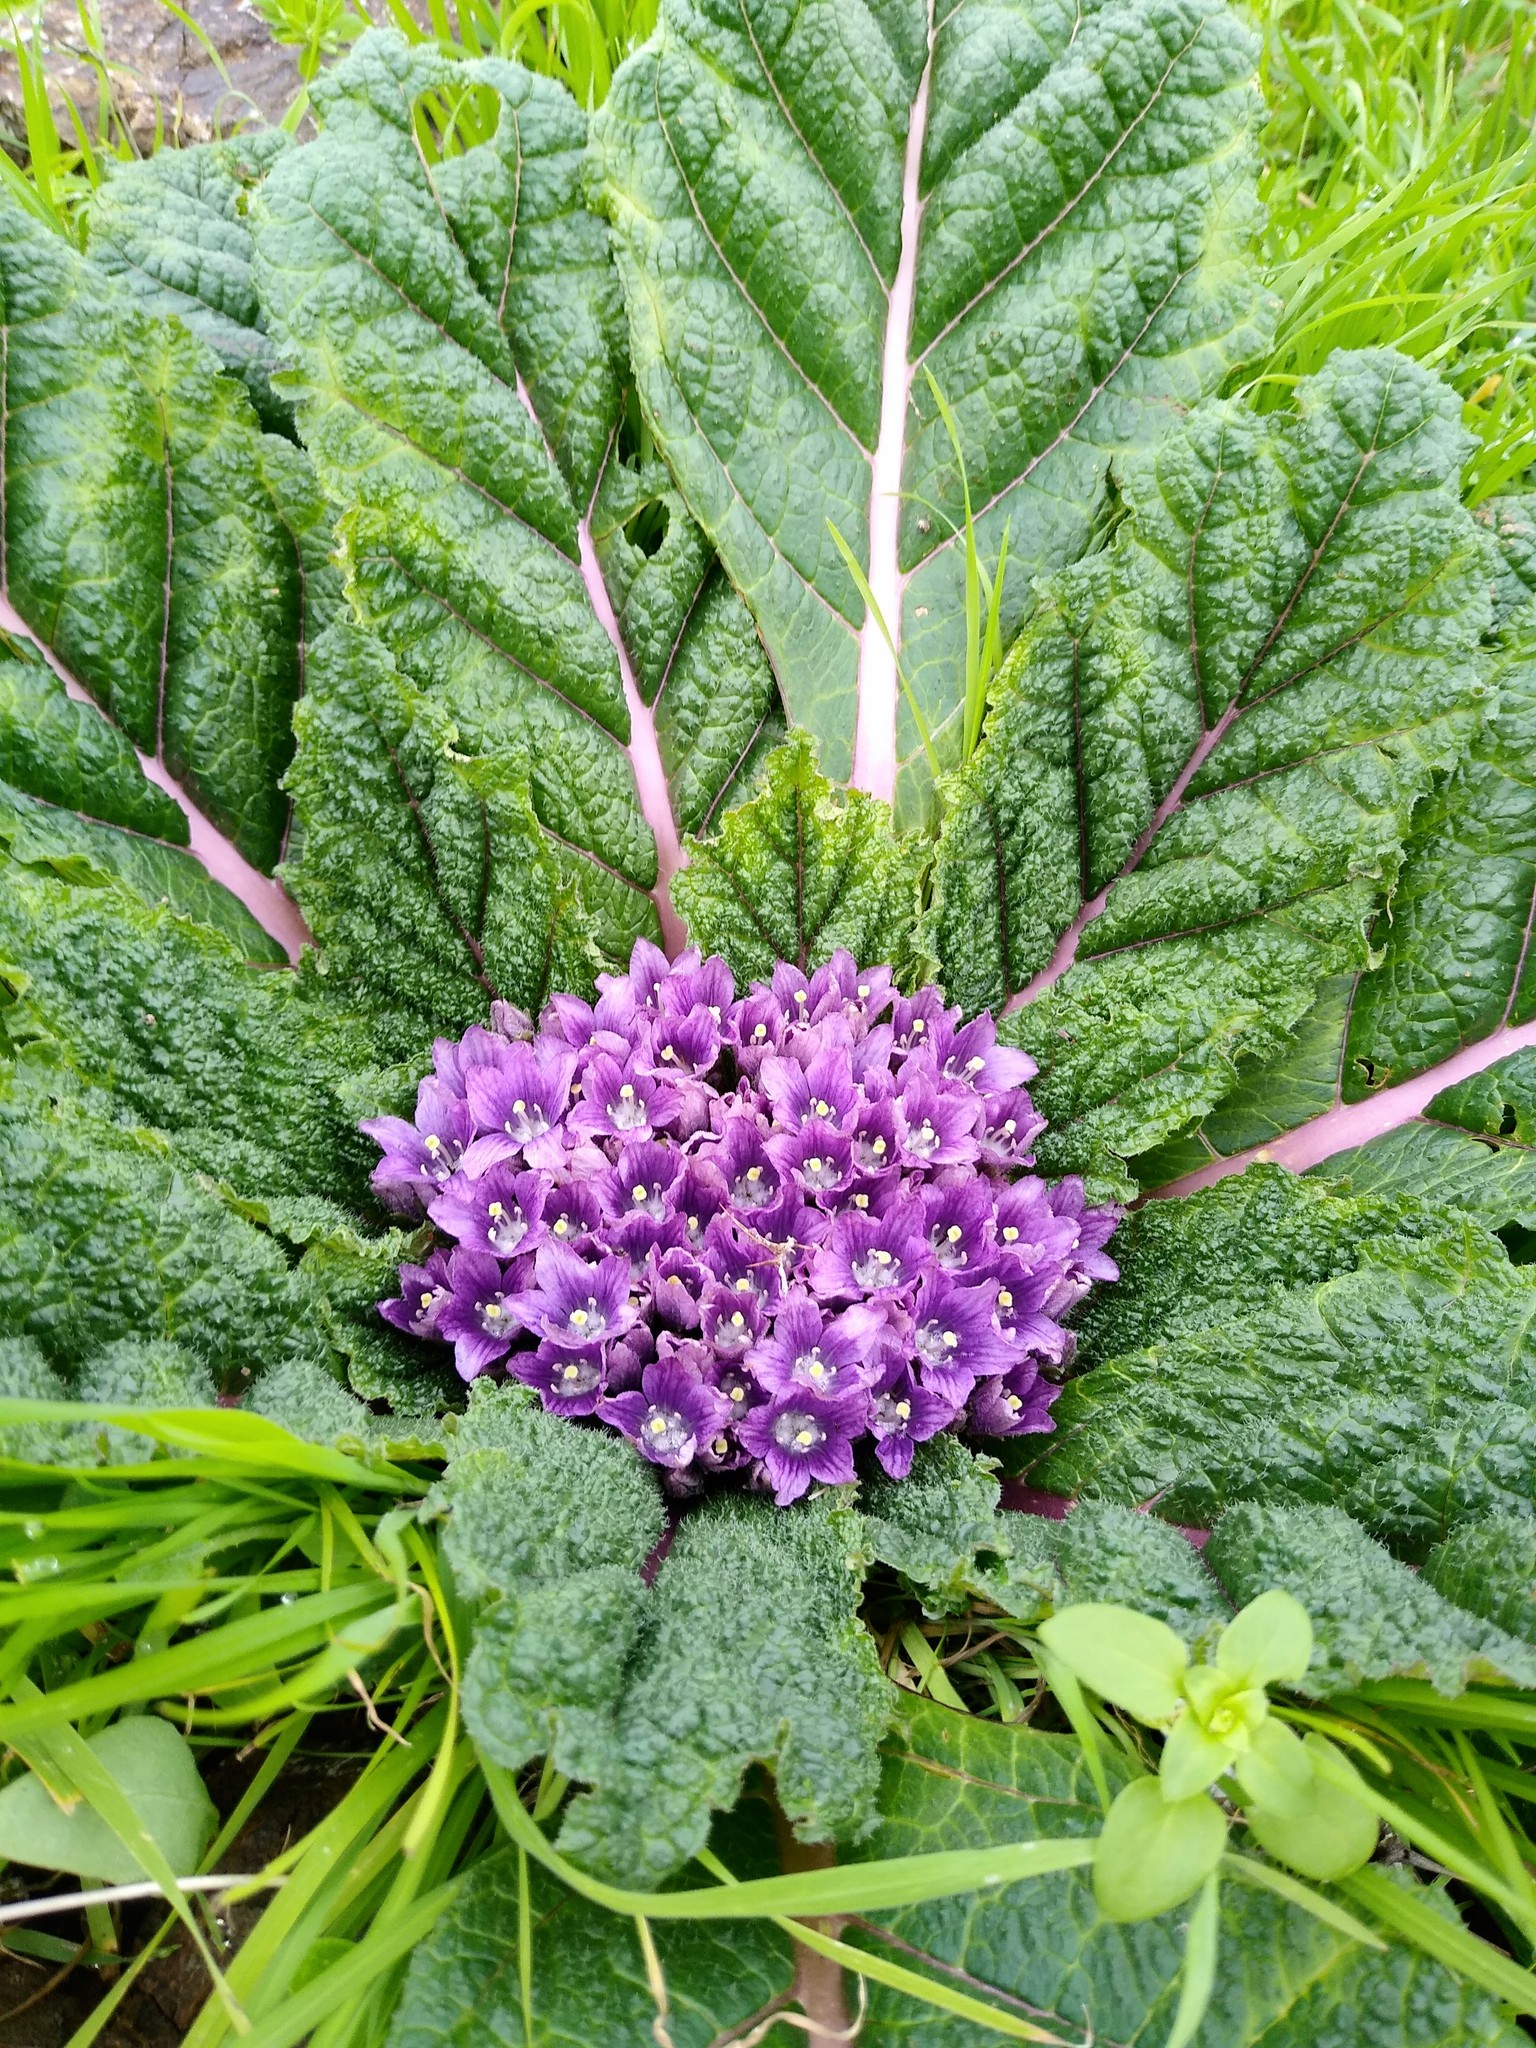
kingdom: Plantae
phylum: Tracheophyta
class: Magnoliopsida
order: Solanales
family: Solanaceae
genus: Mandragora
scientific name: Mandragora officinarum
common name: Mandrake
